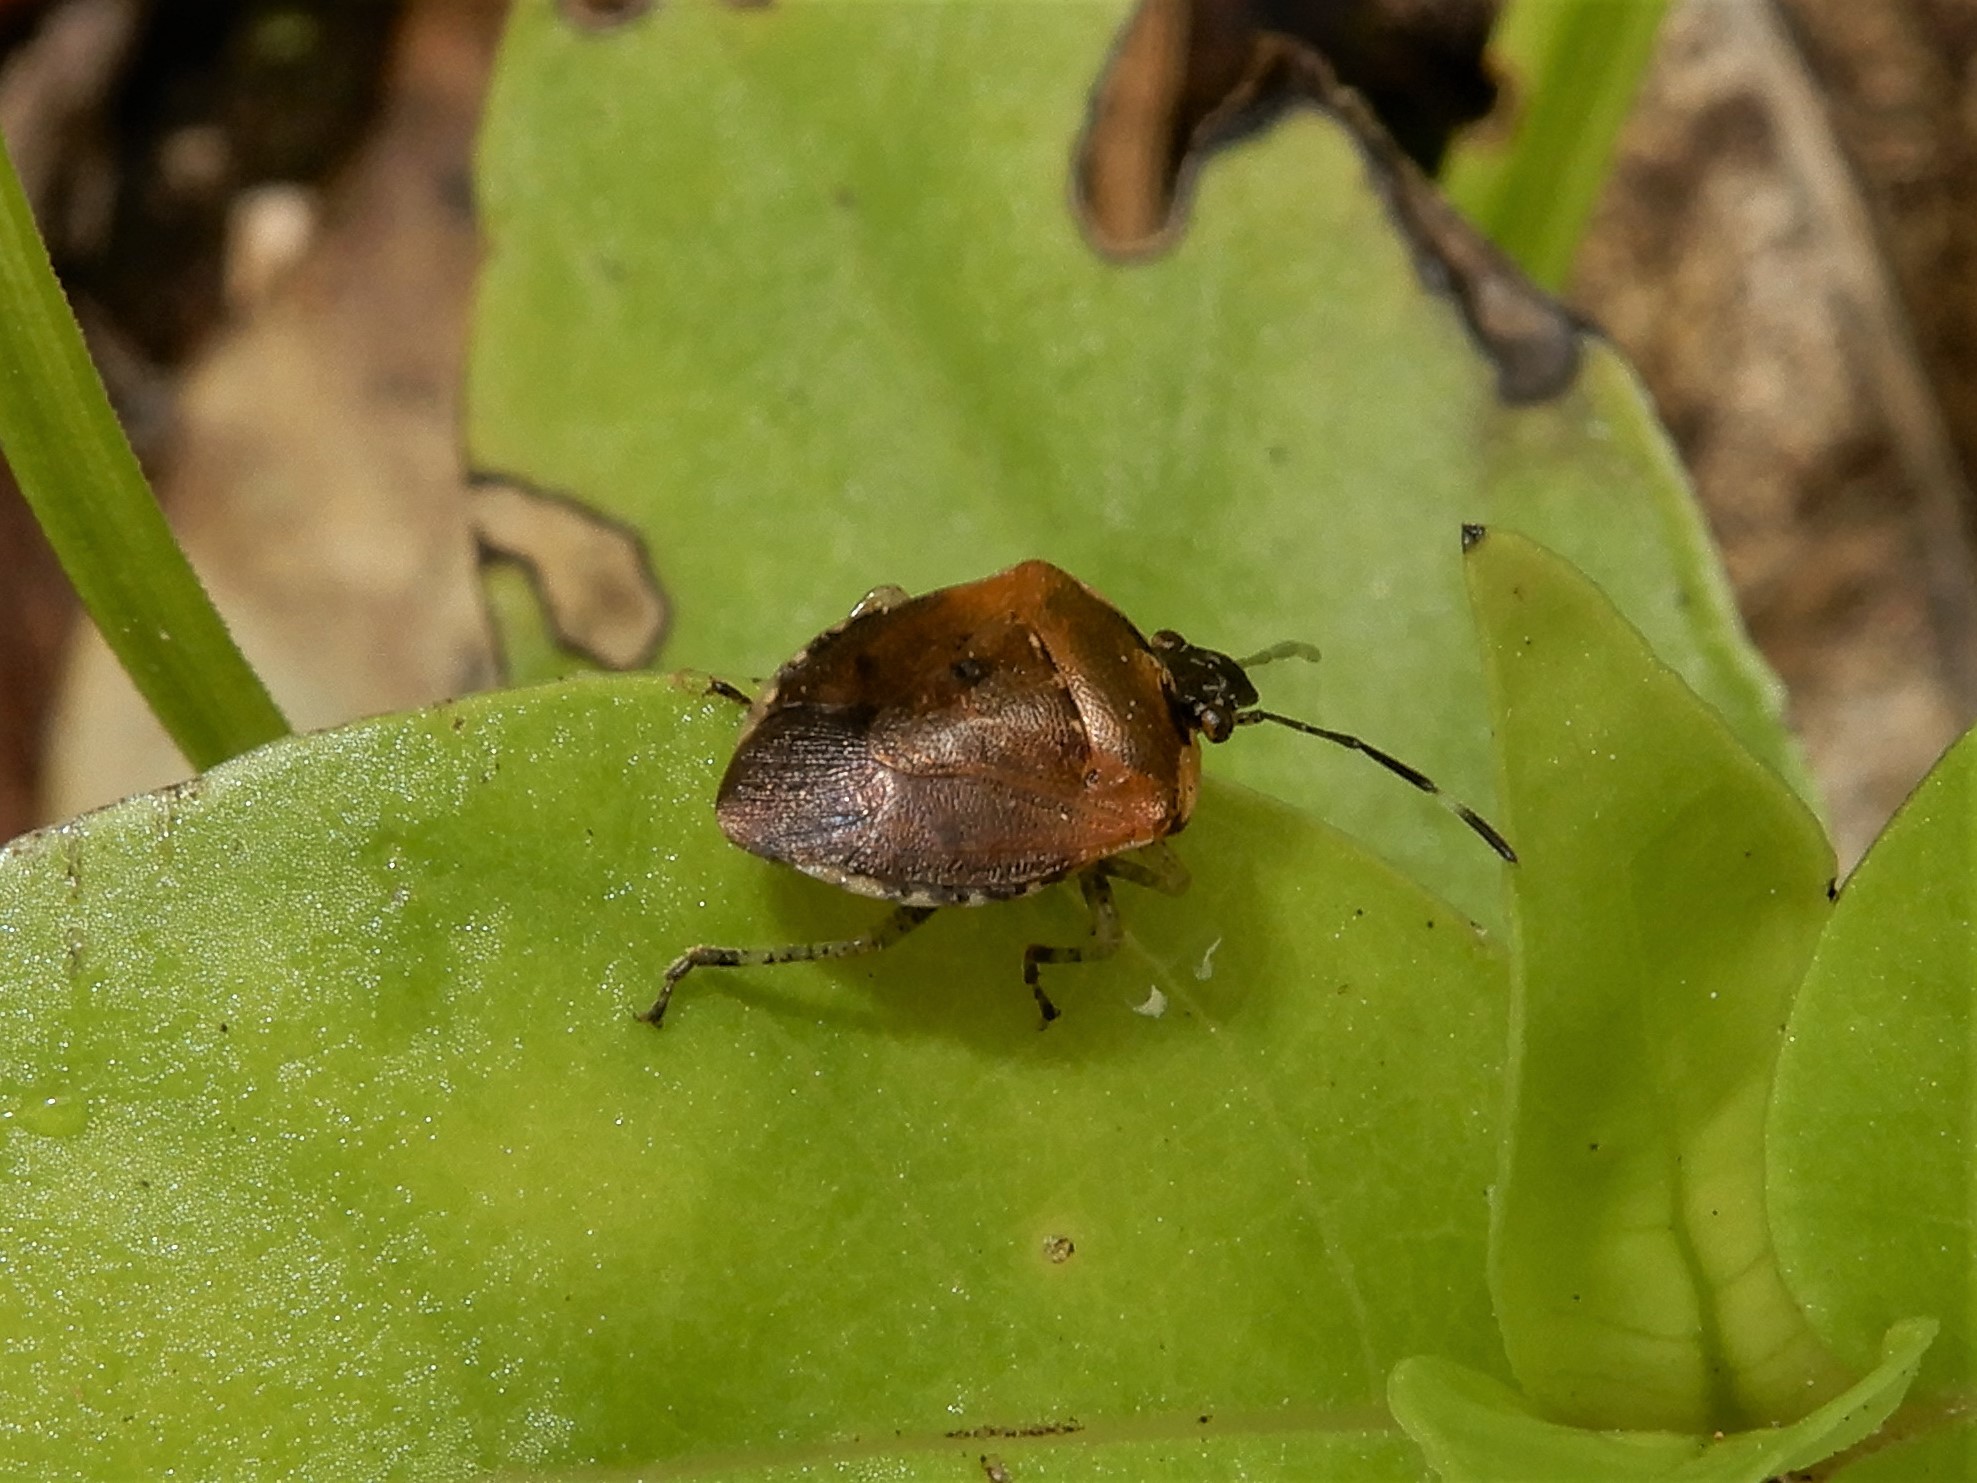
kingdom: Animalia
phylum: Arthropoda
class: Insecta
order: Hemiptera
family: Pentatomidae
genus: Monteithiella
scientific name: Monteithiella
